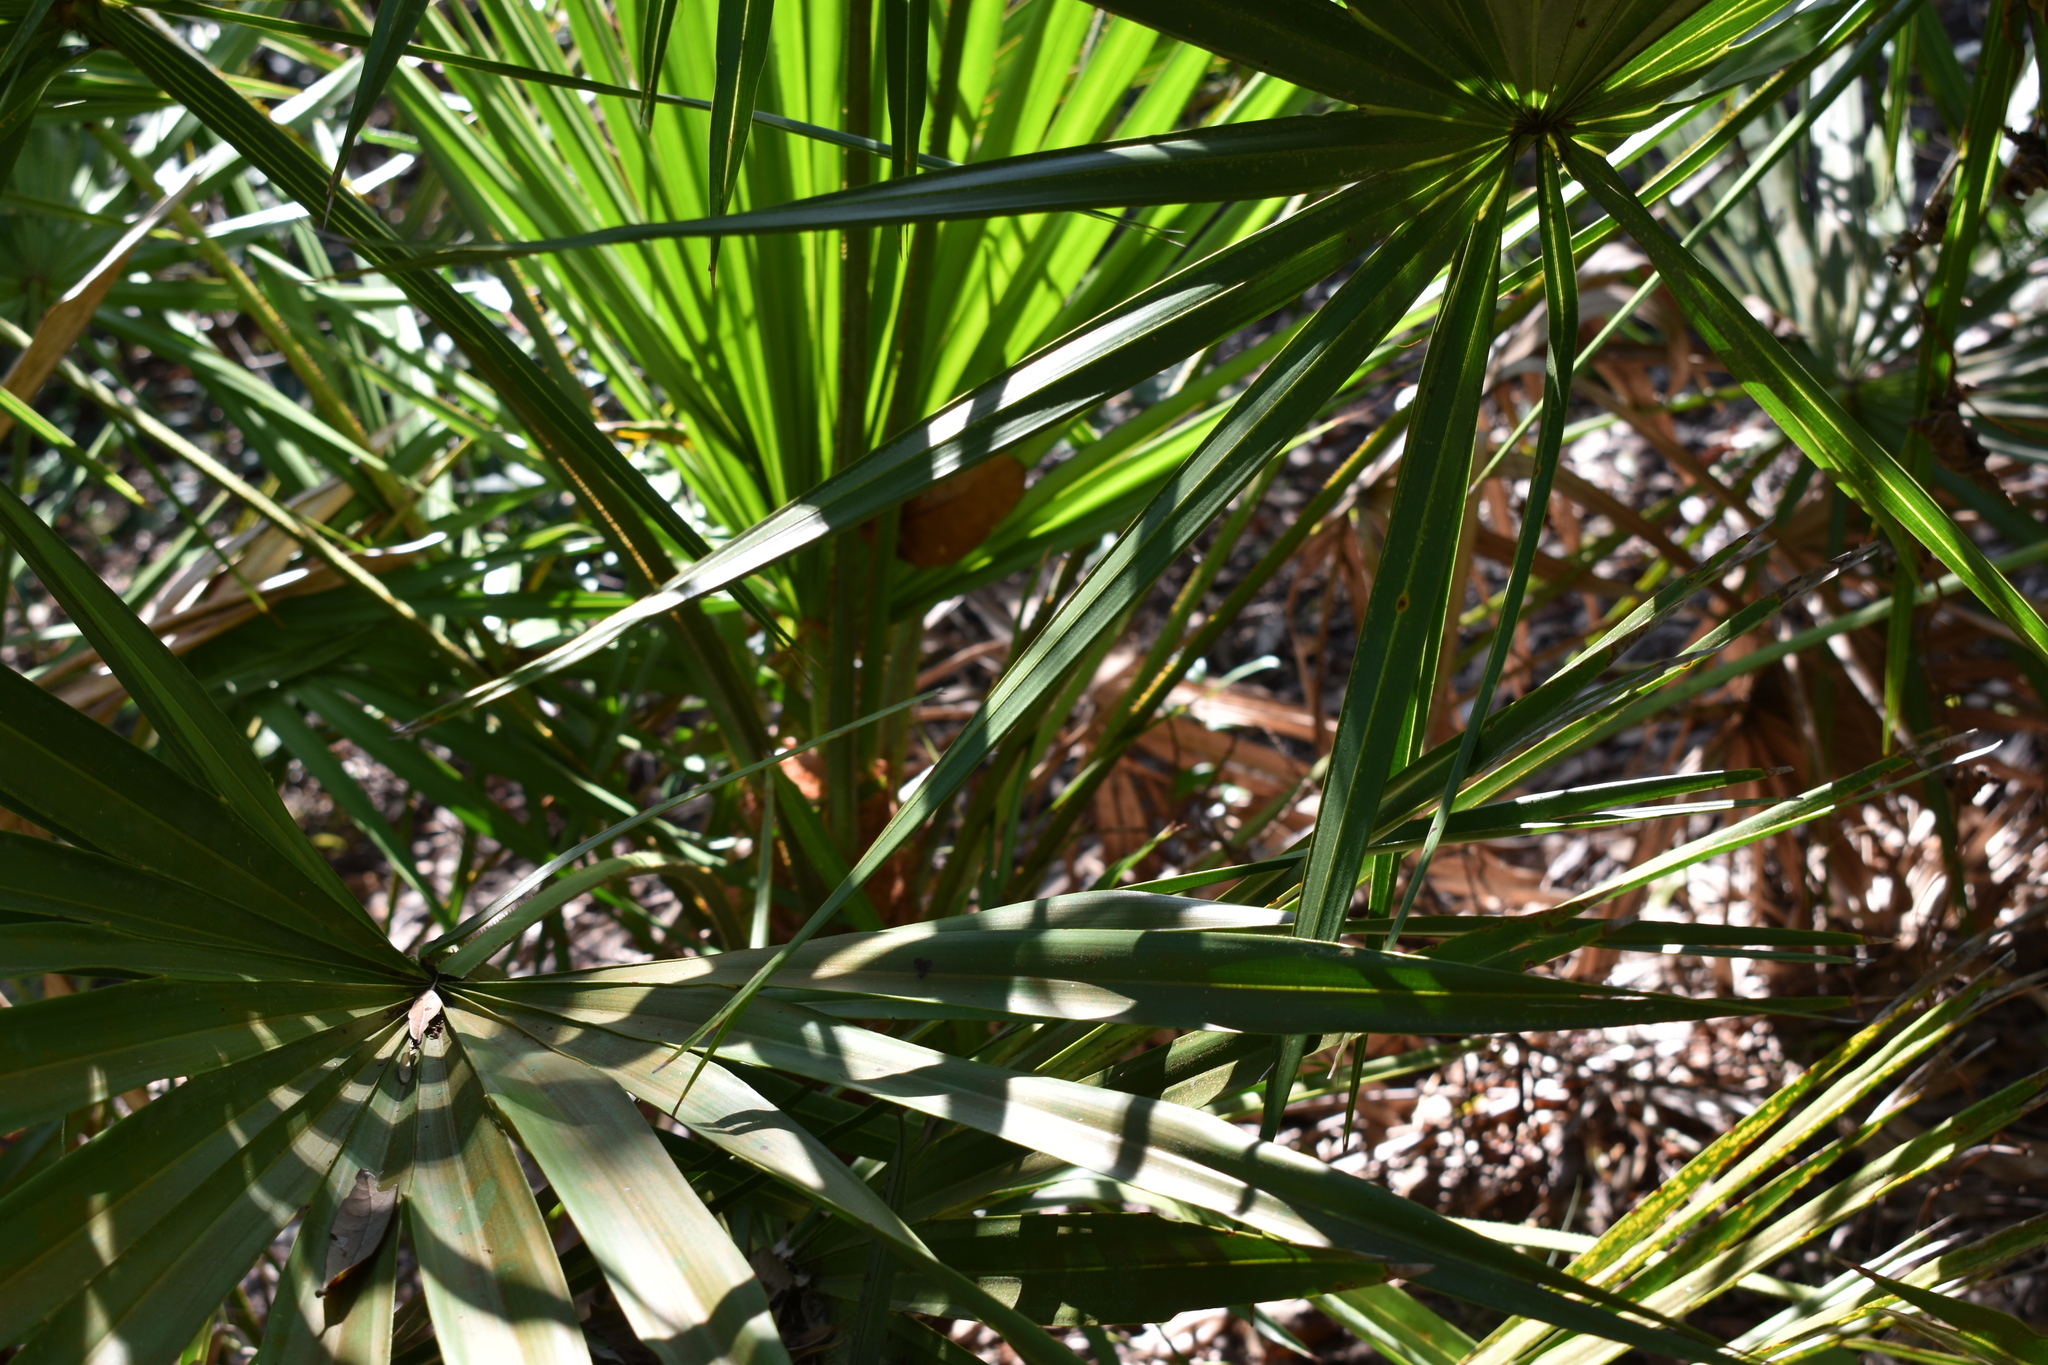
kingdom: Plantae
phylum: Tracheophyta
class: Liliopsida
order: Arecales
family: Arecaceae
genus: Serenoa
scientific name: Serenoa repens
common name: Saw-palmetto
